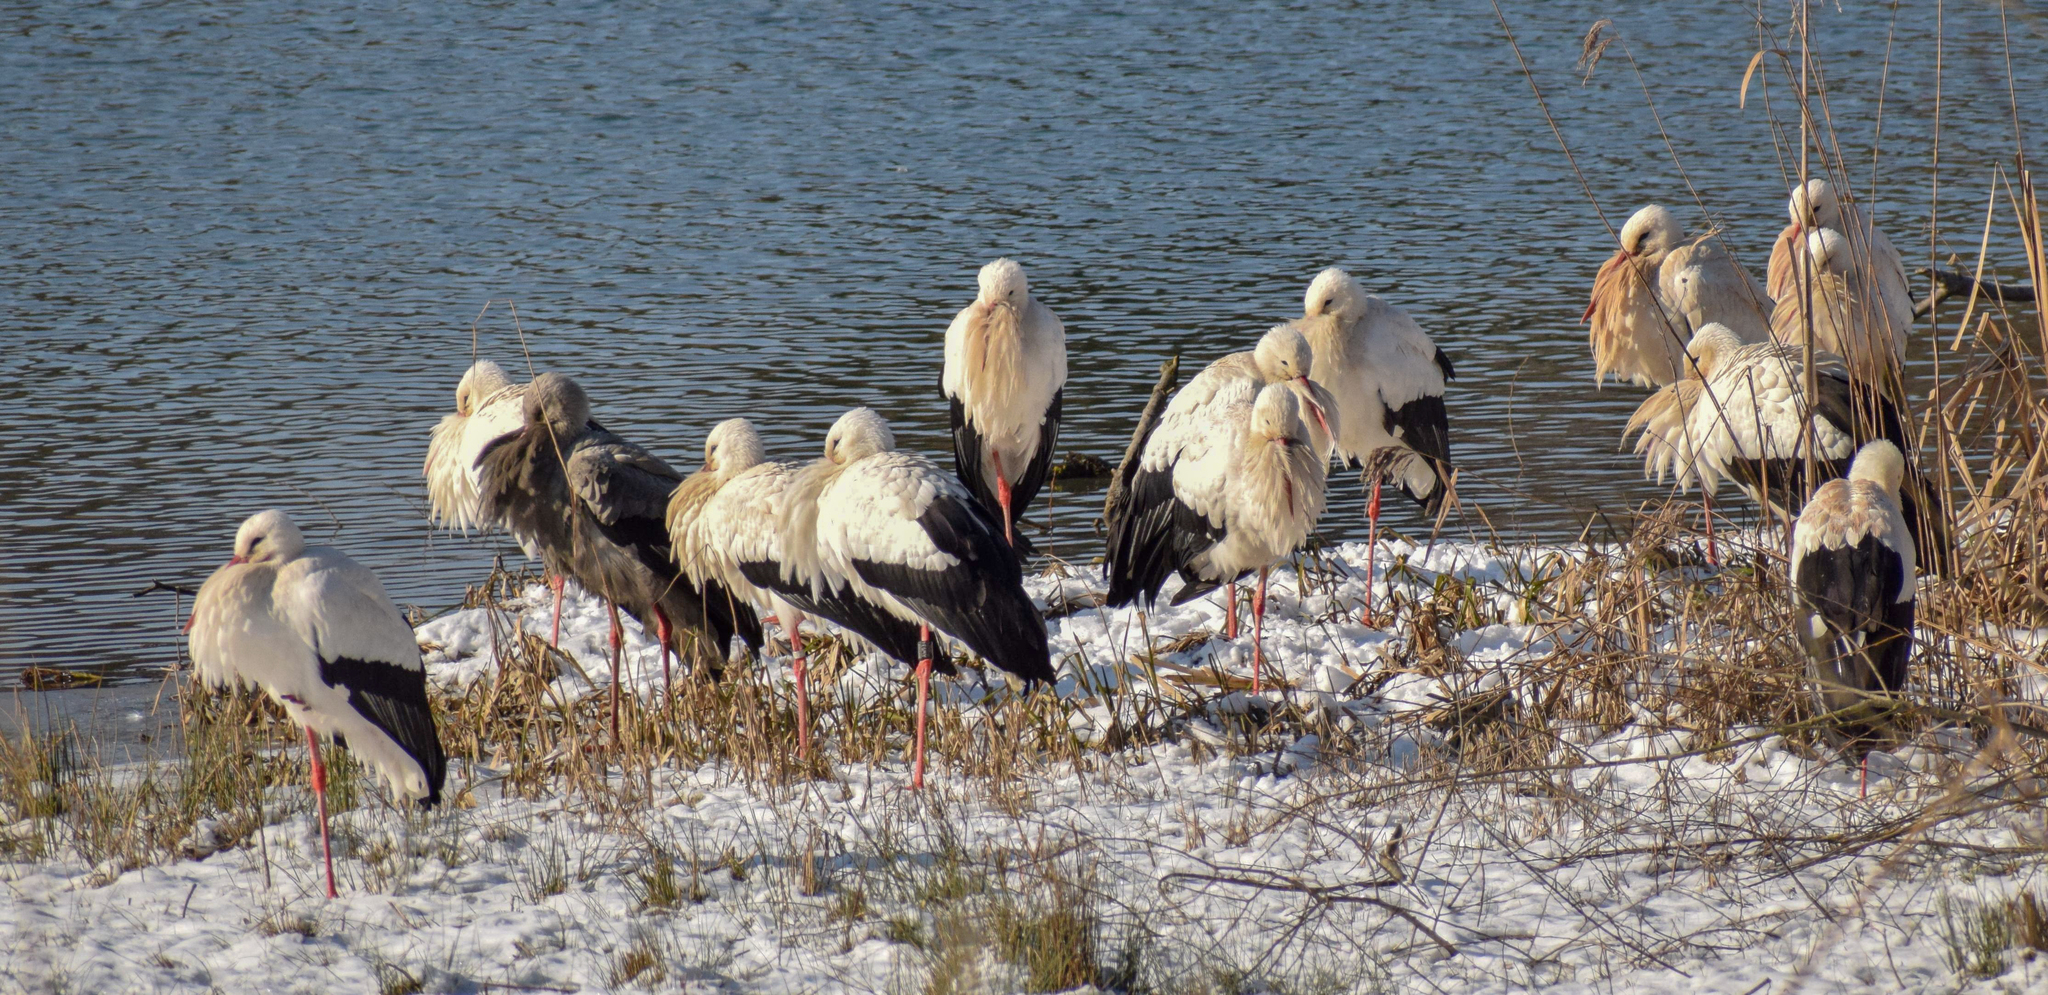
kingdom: Animalia
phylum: Chordata
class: Aves
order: Ciconiiformes
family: Ciconiidae
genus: Ciconia
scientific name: Ciconia ciconia
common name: White stork
